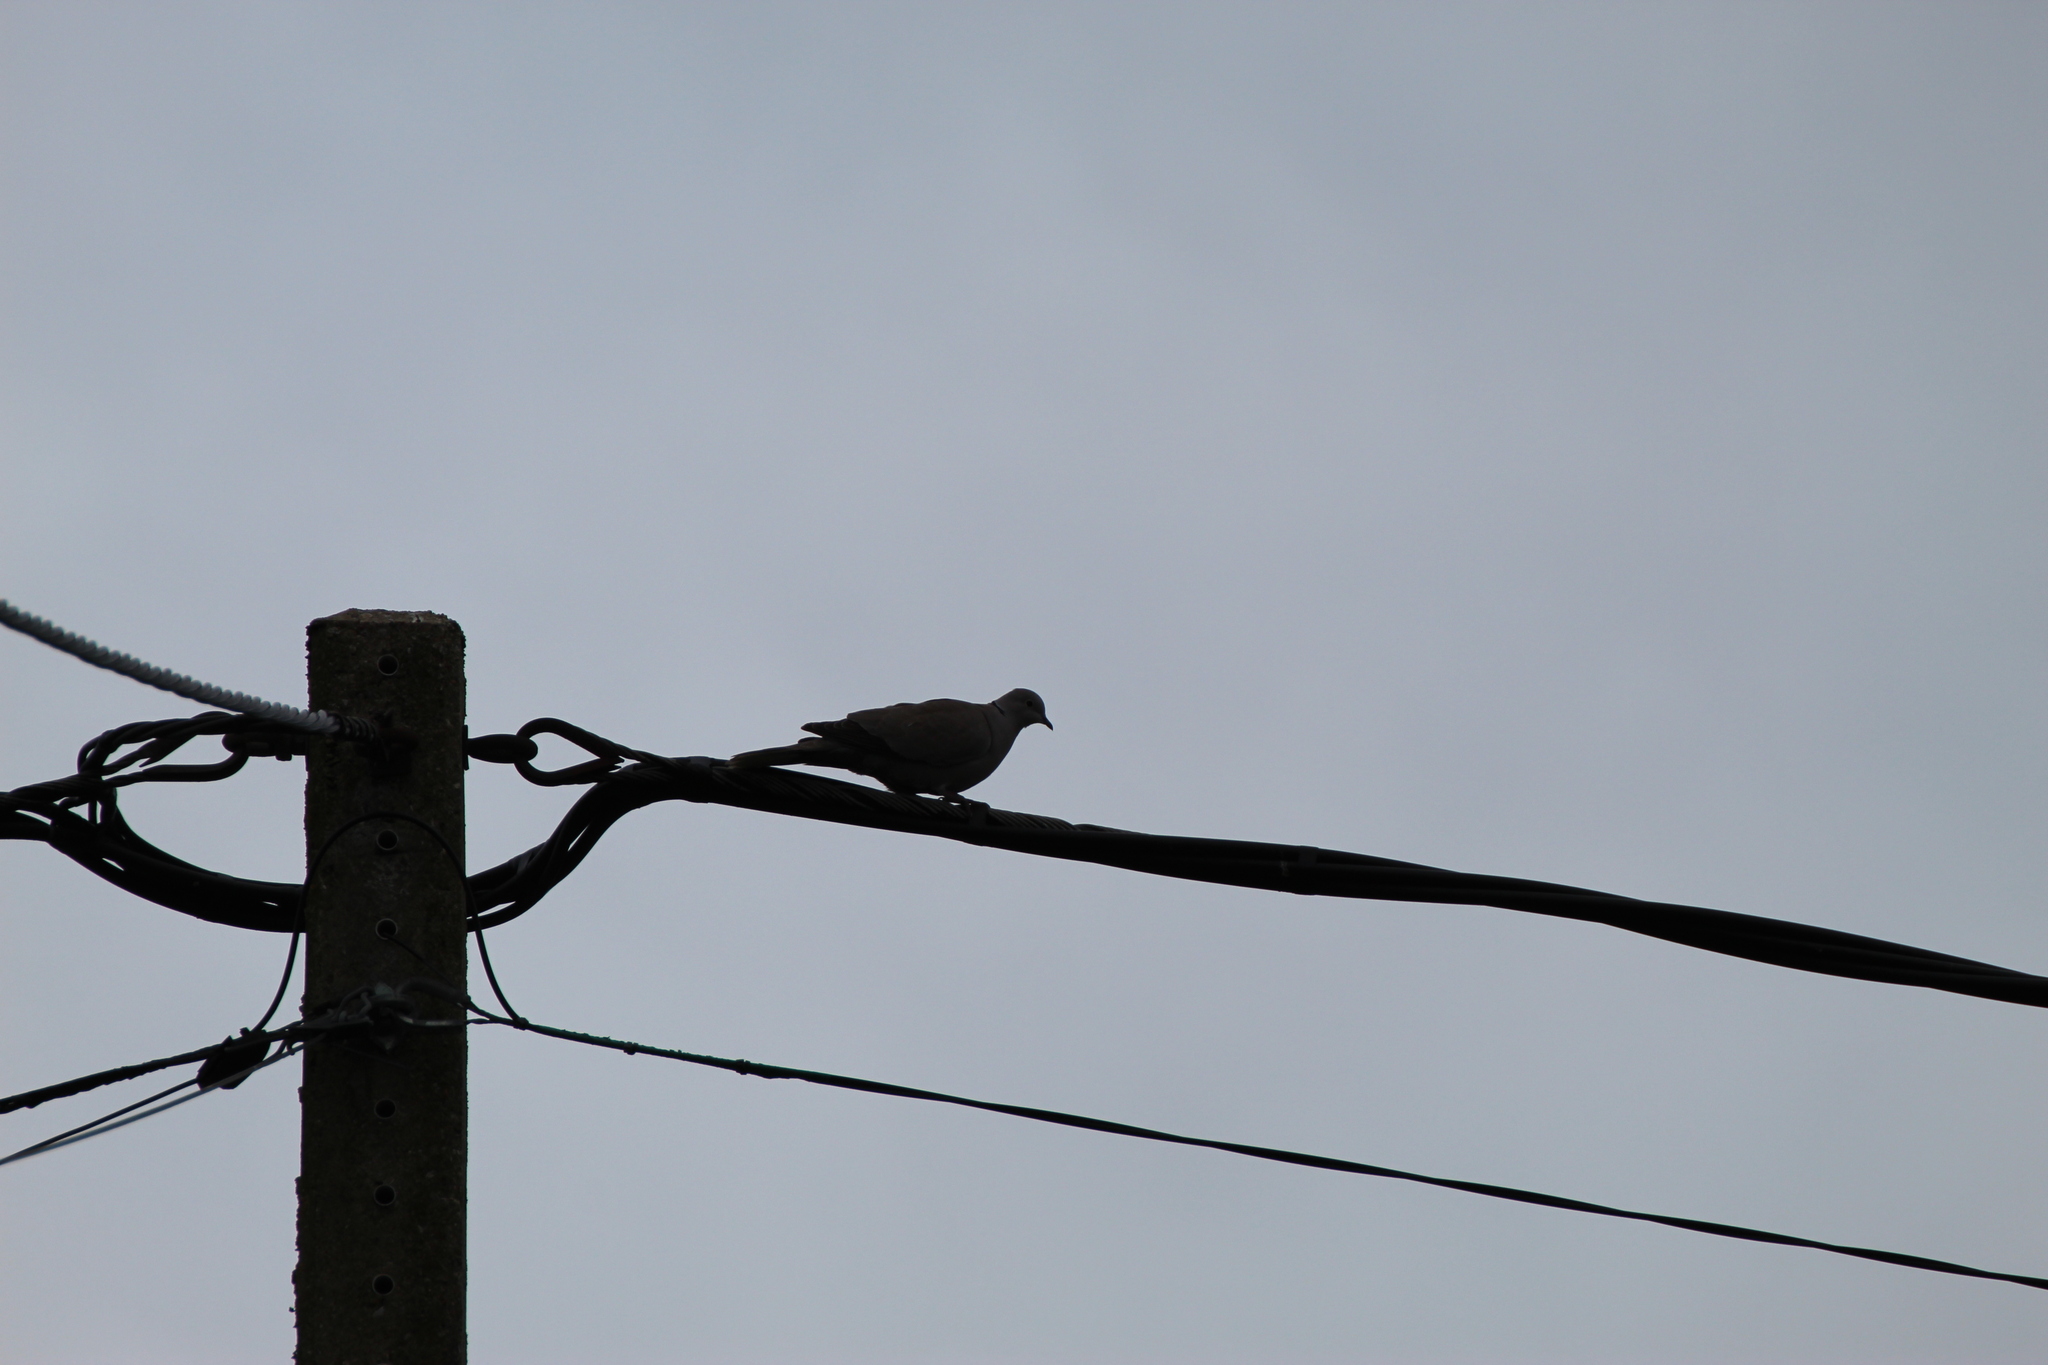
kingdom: Animalia
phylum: Chordata
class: Aves
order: Columbiformes
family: Columbidae
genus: Streptopelia
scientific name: Streptopelia decaocto
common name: Eurasian collared dove
